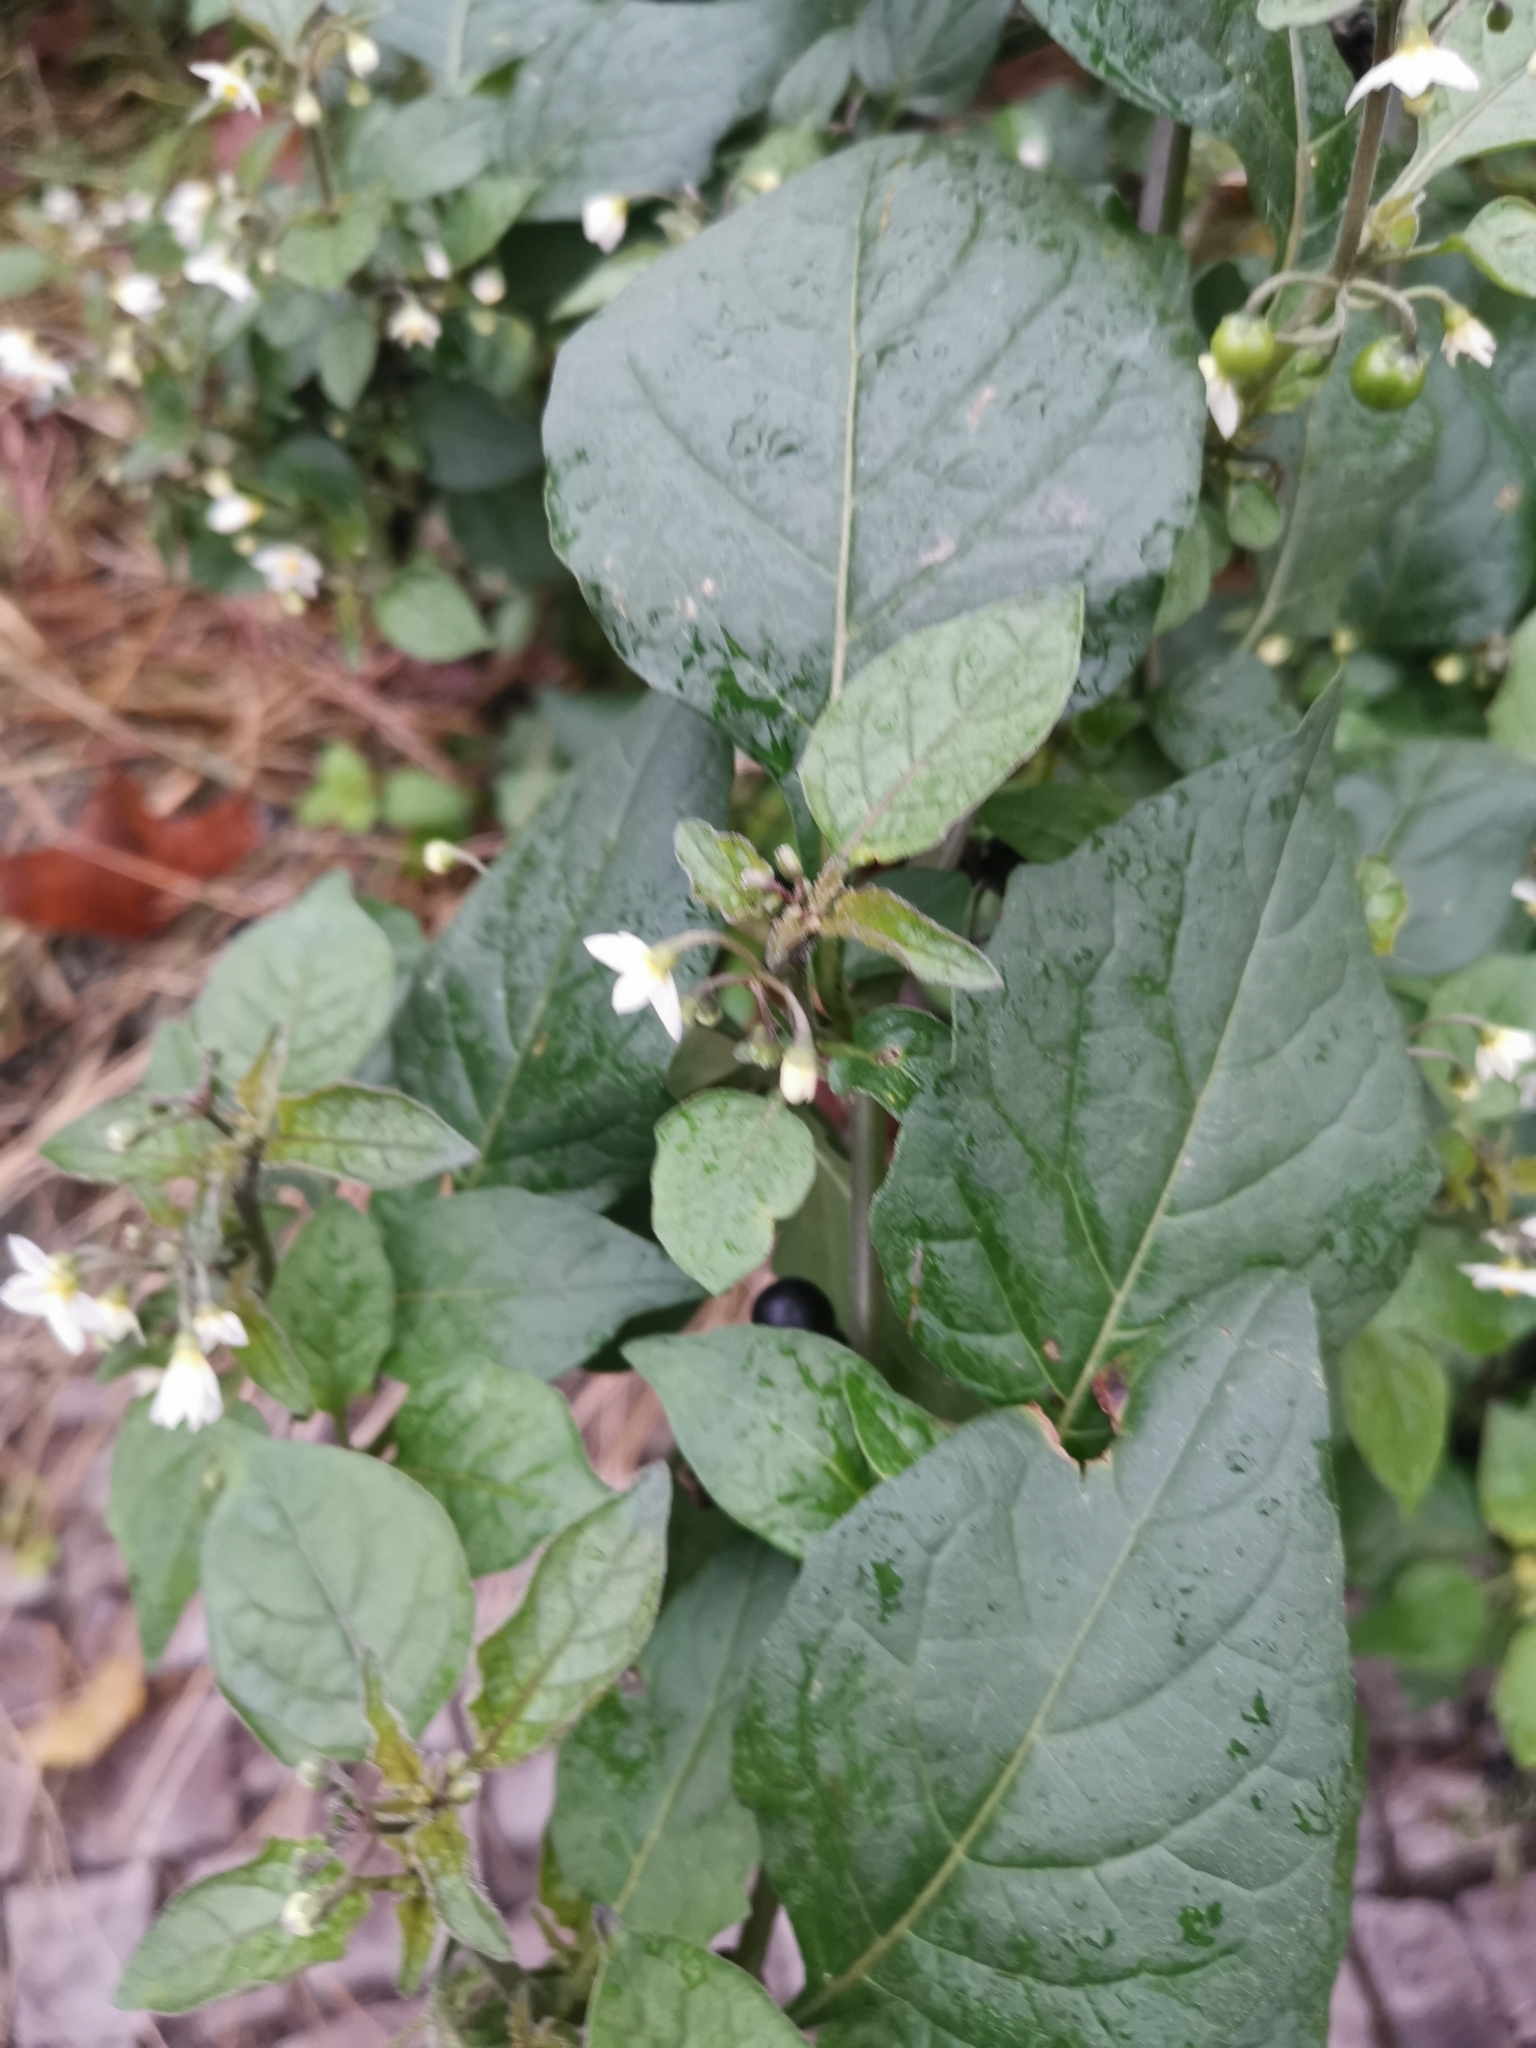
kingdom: Plantae
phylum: Tracheophyta
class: Magnoliopsida
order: Solanales
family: Solanaceae
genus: Solanum
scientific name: Solanum nigrum
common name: Black nightshade
